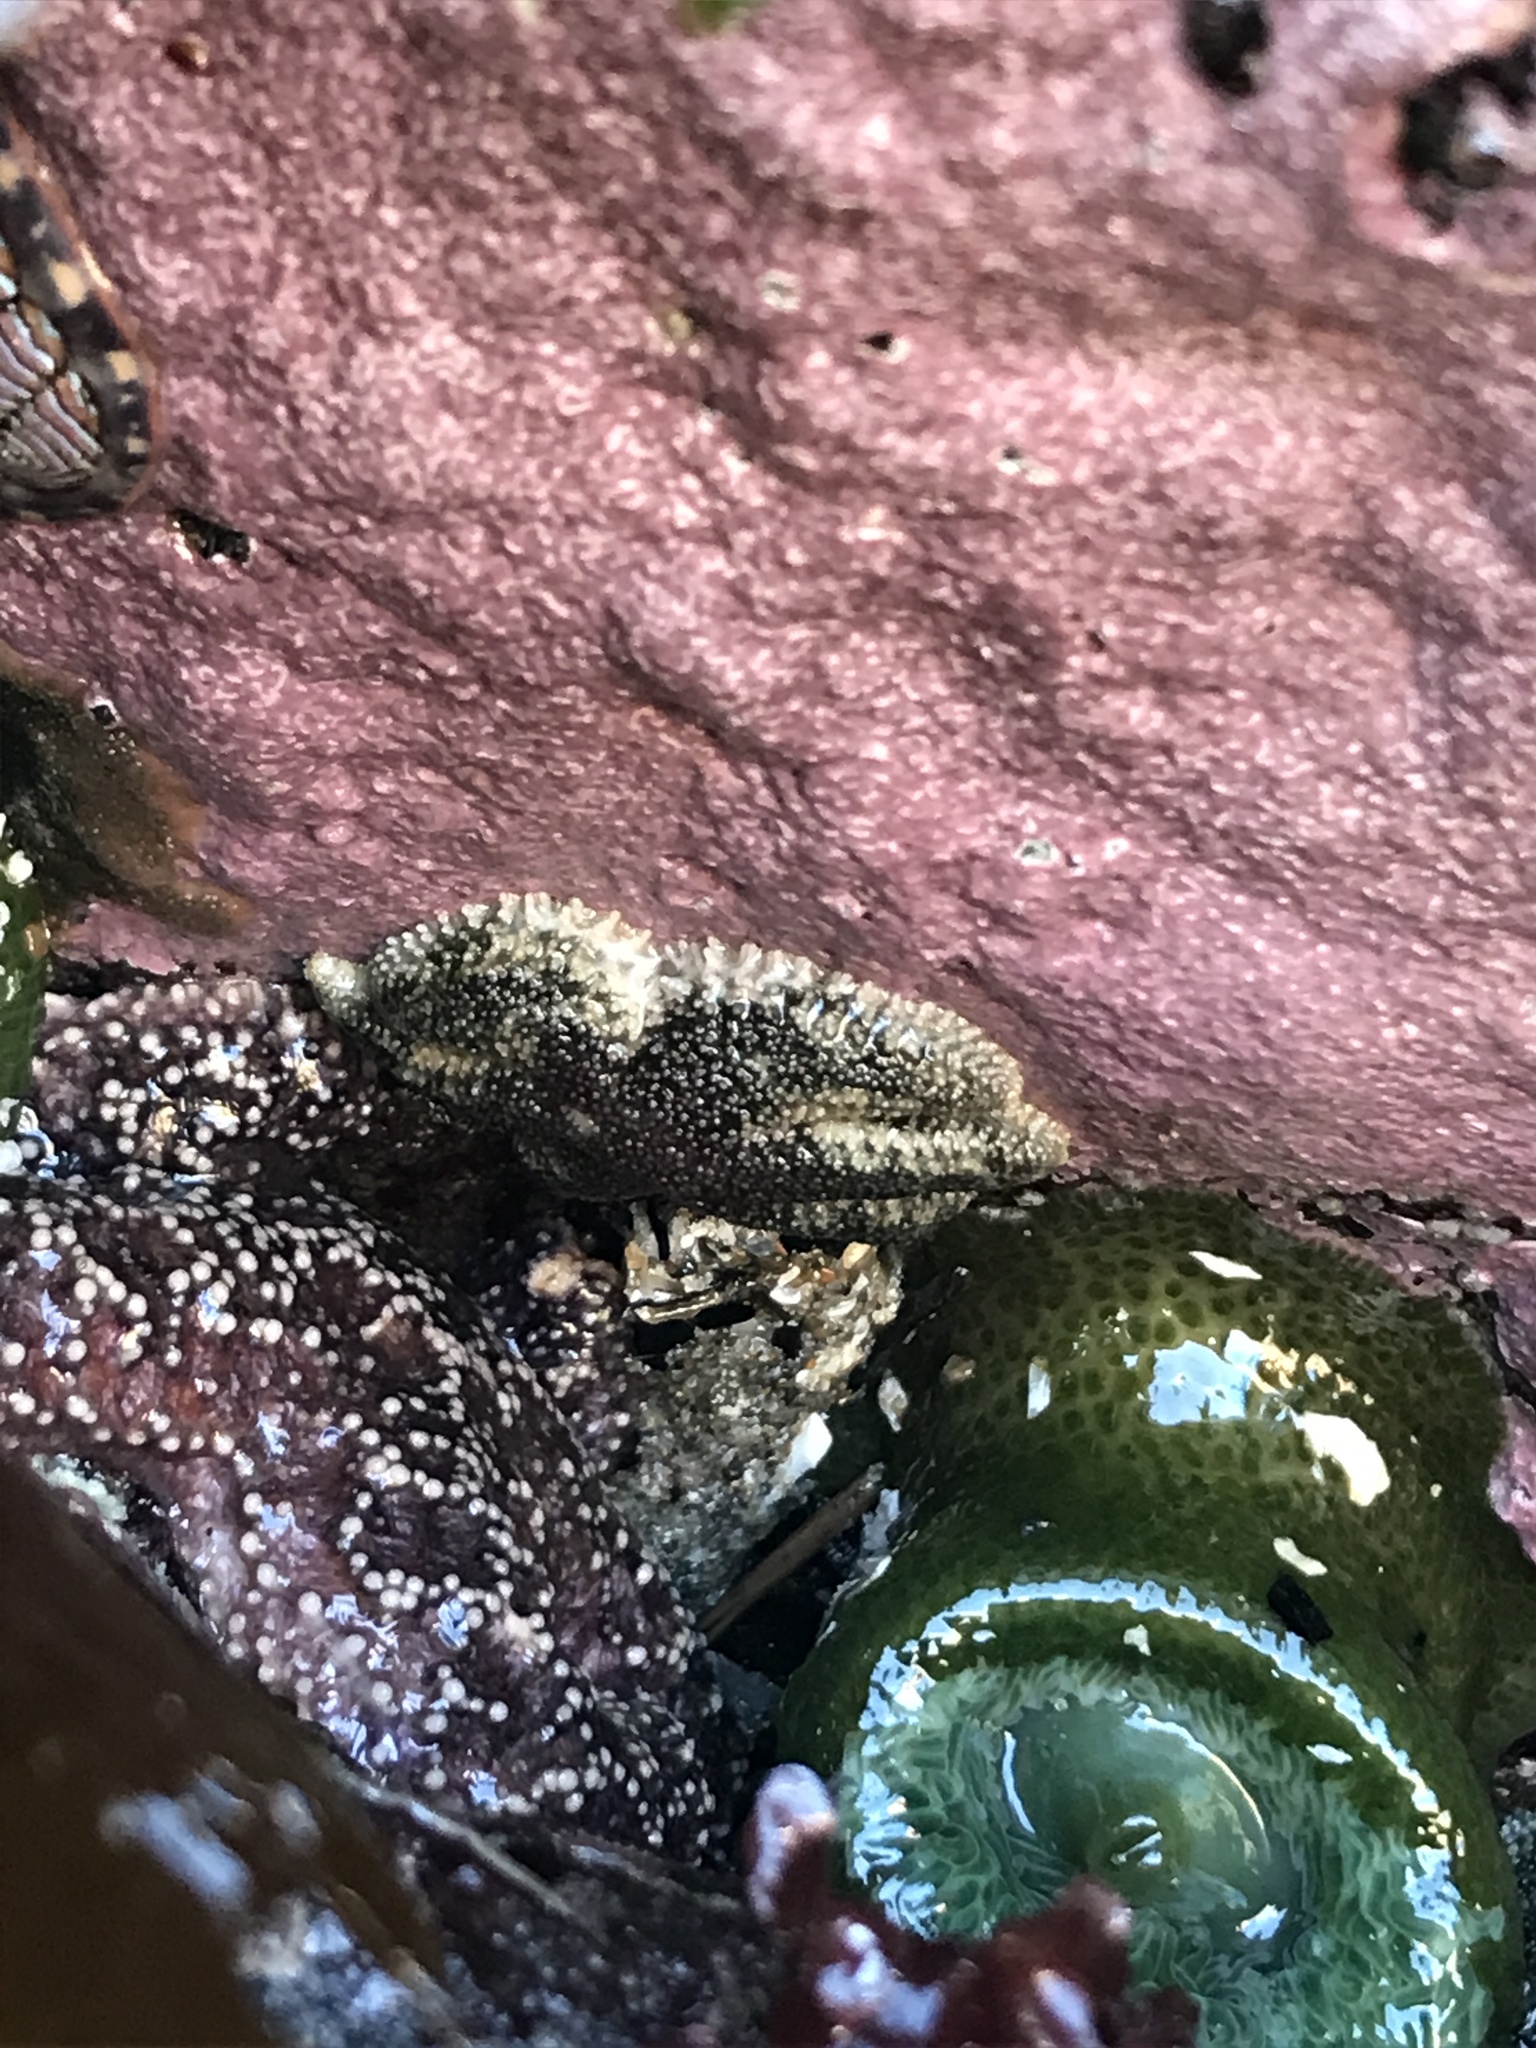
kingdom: Animalia
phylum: Echinodermata
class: Asteroidea
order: Forcipulatida
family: Asteriidae
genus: Leptasterias
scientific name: Leptasterias hexactis
